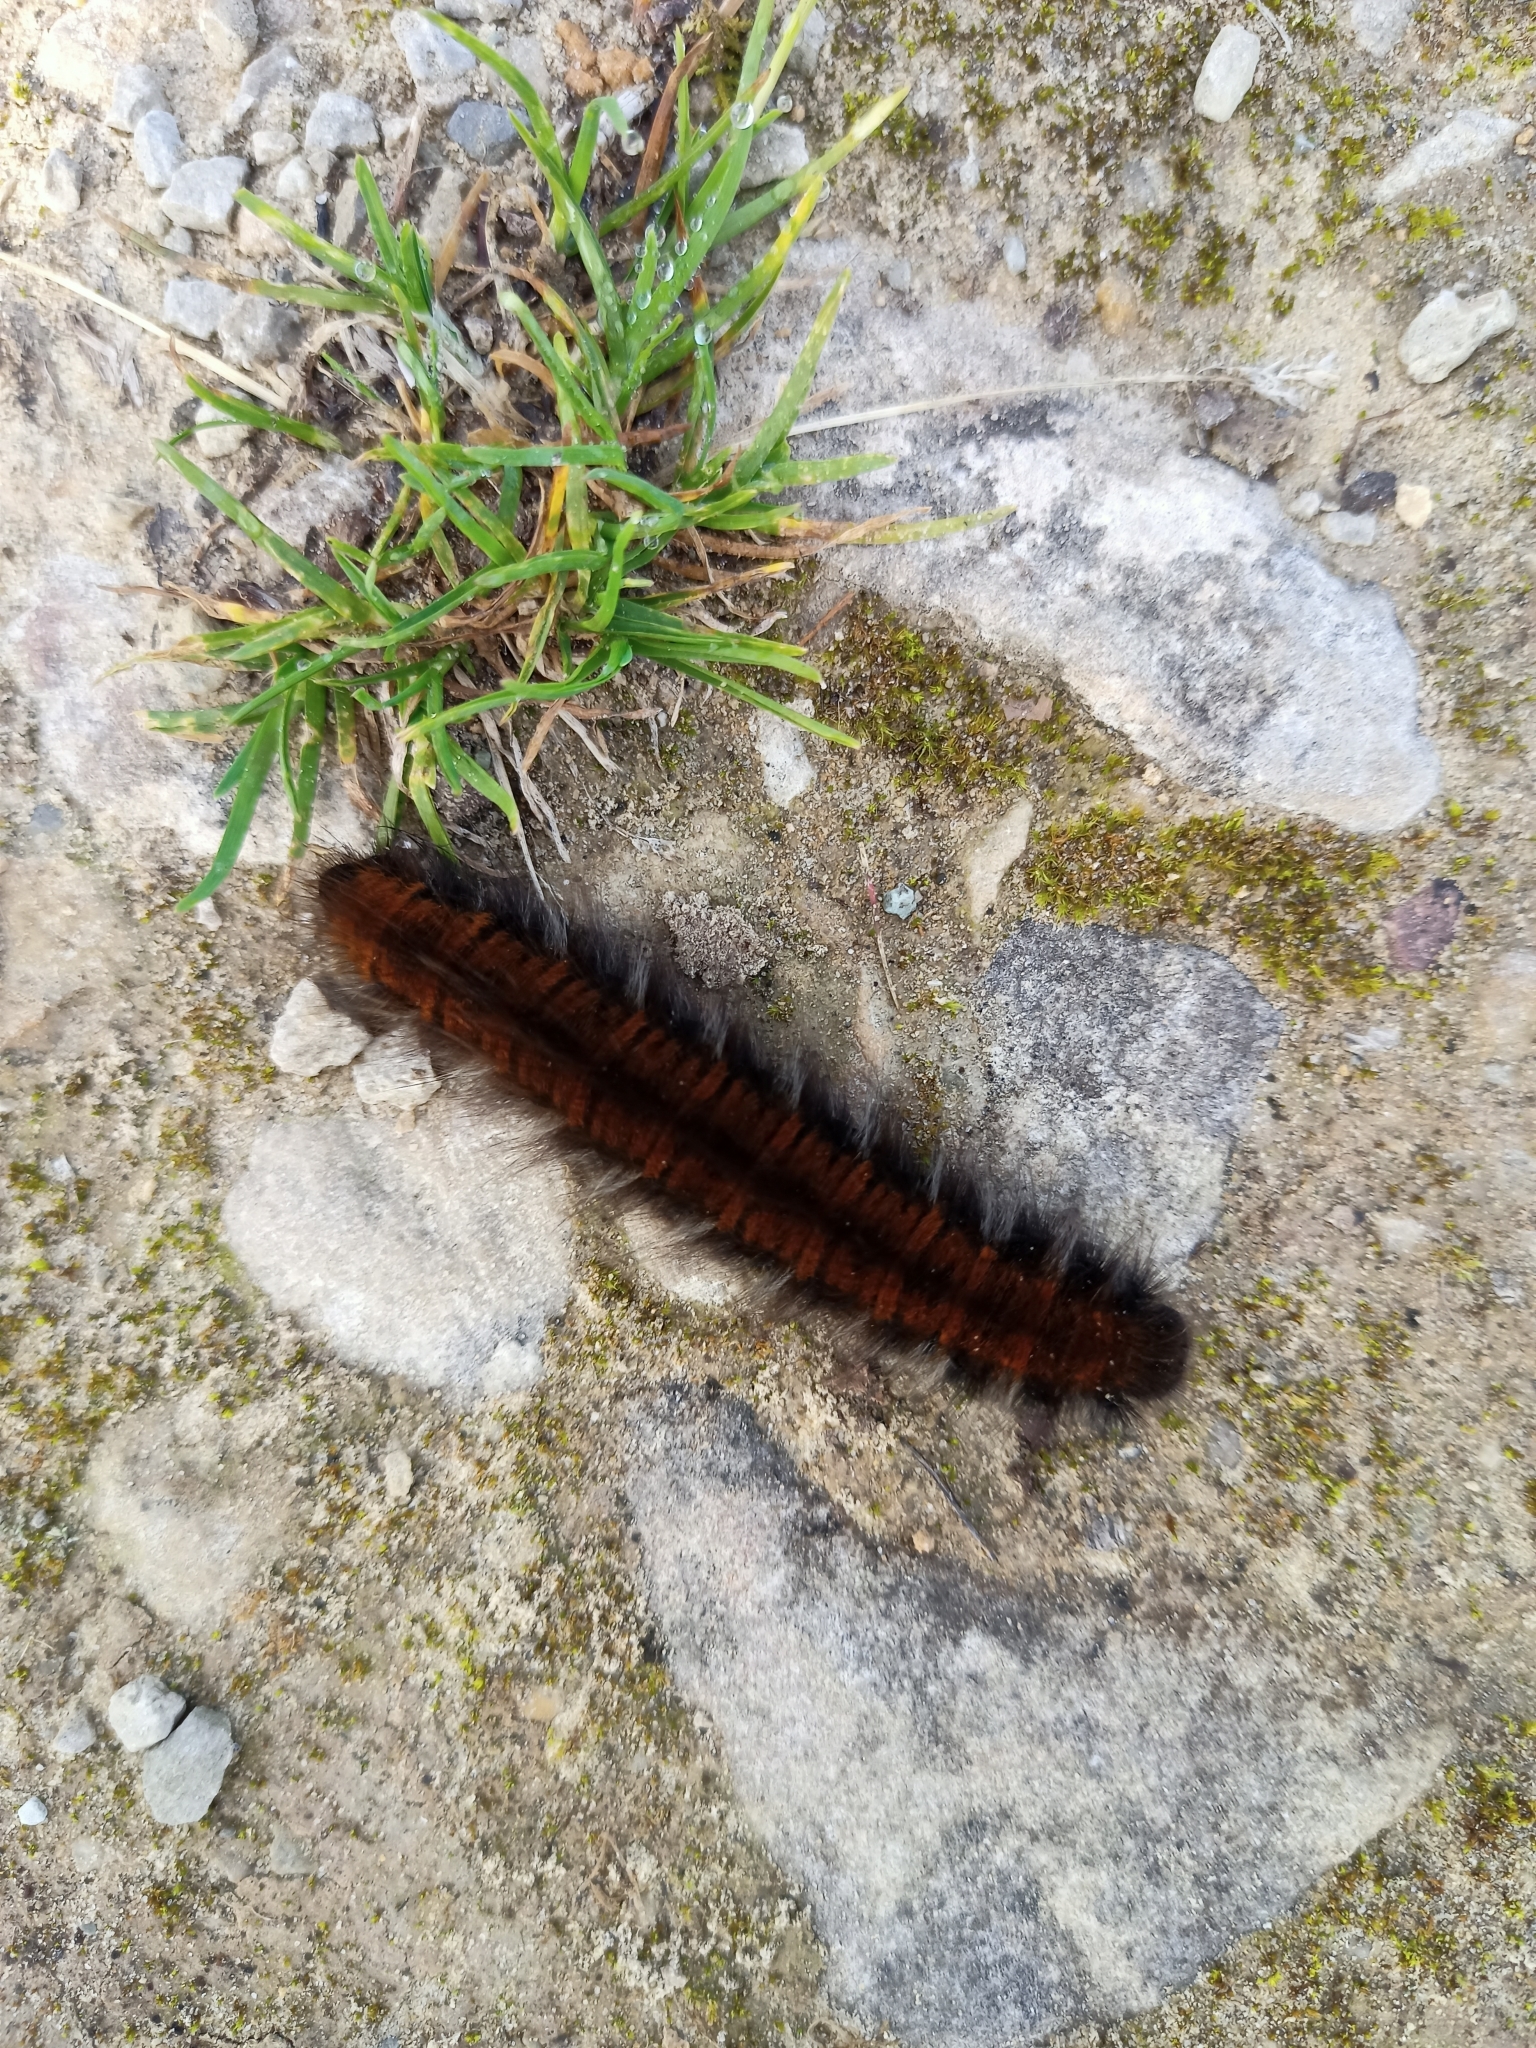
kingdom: Animalia
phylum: Arthropoda
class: Insecta
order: Lepidoptera
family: Lasiocampidae
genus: Macrothylacia
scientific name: Macrothylacia rubi
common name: Fox moth
